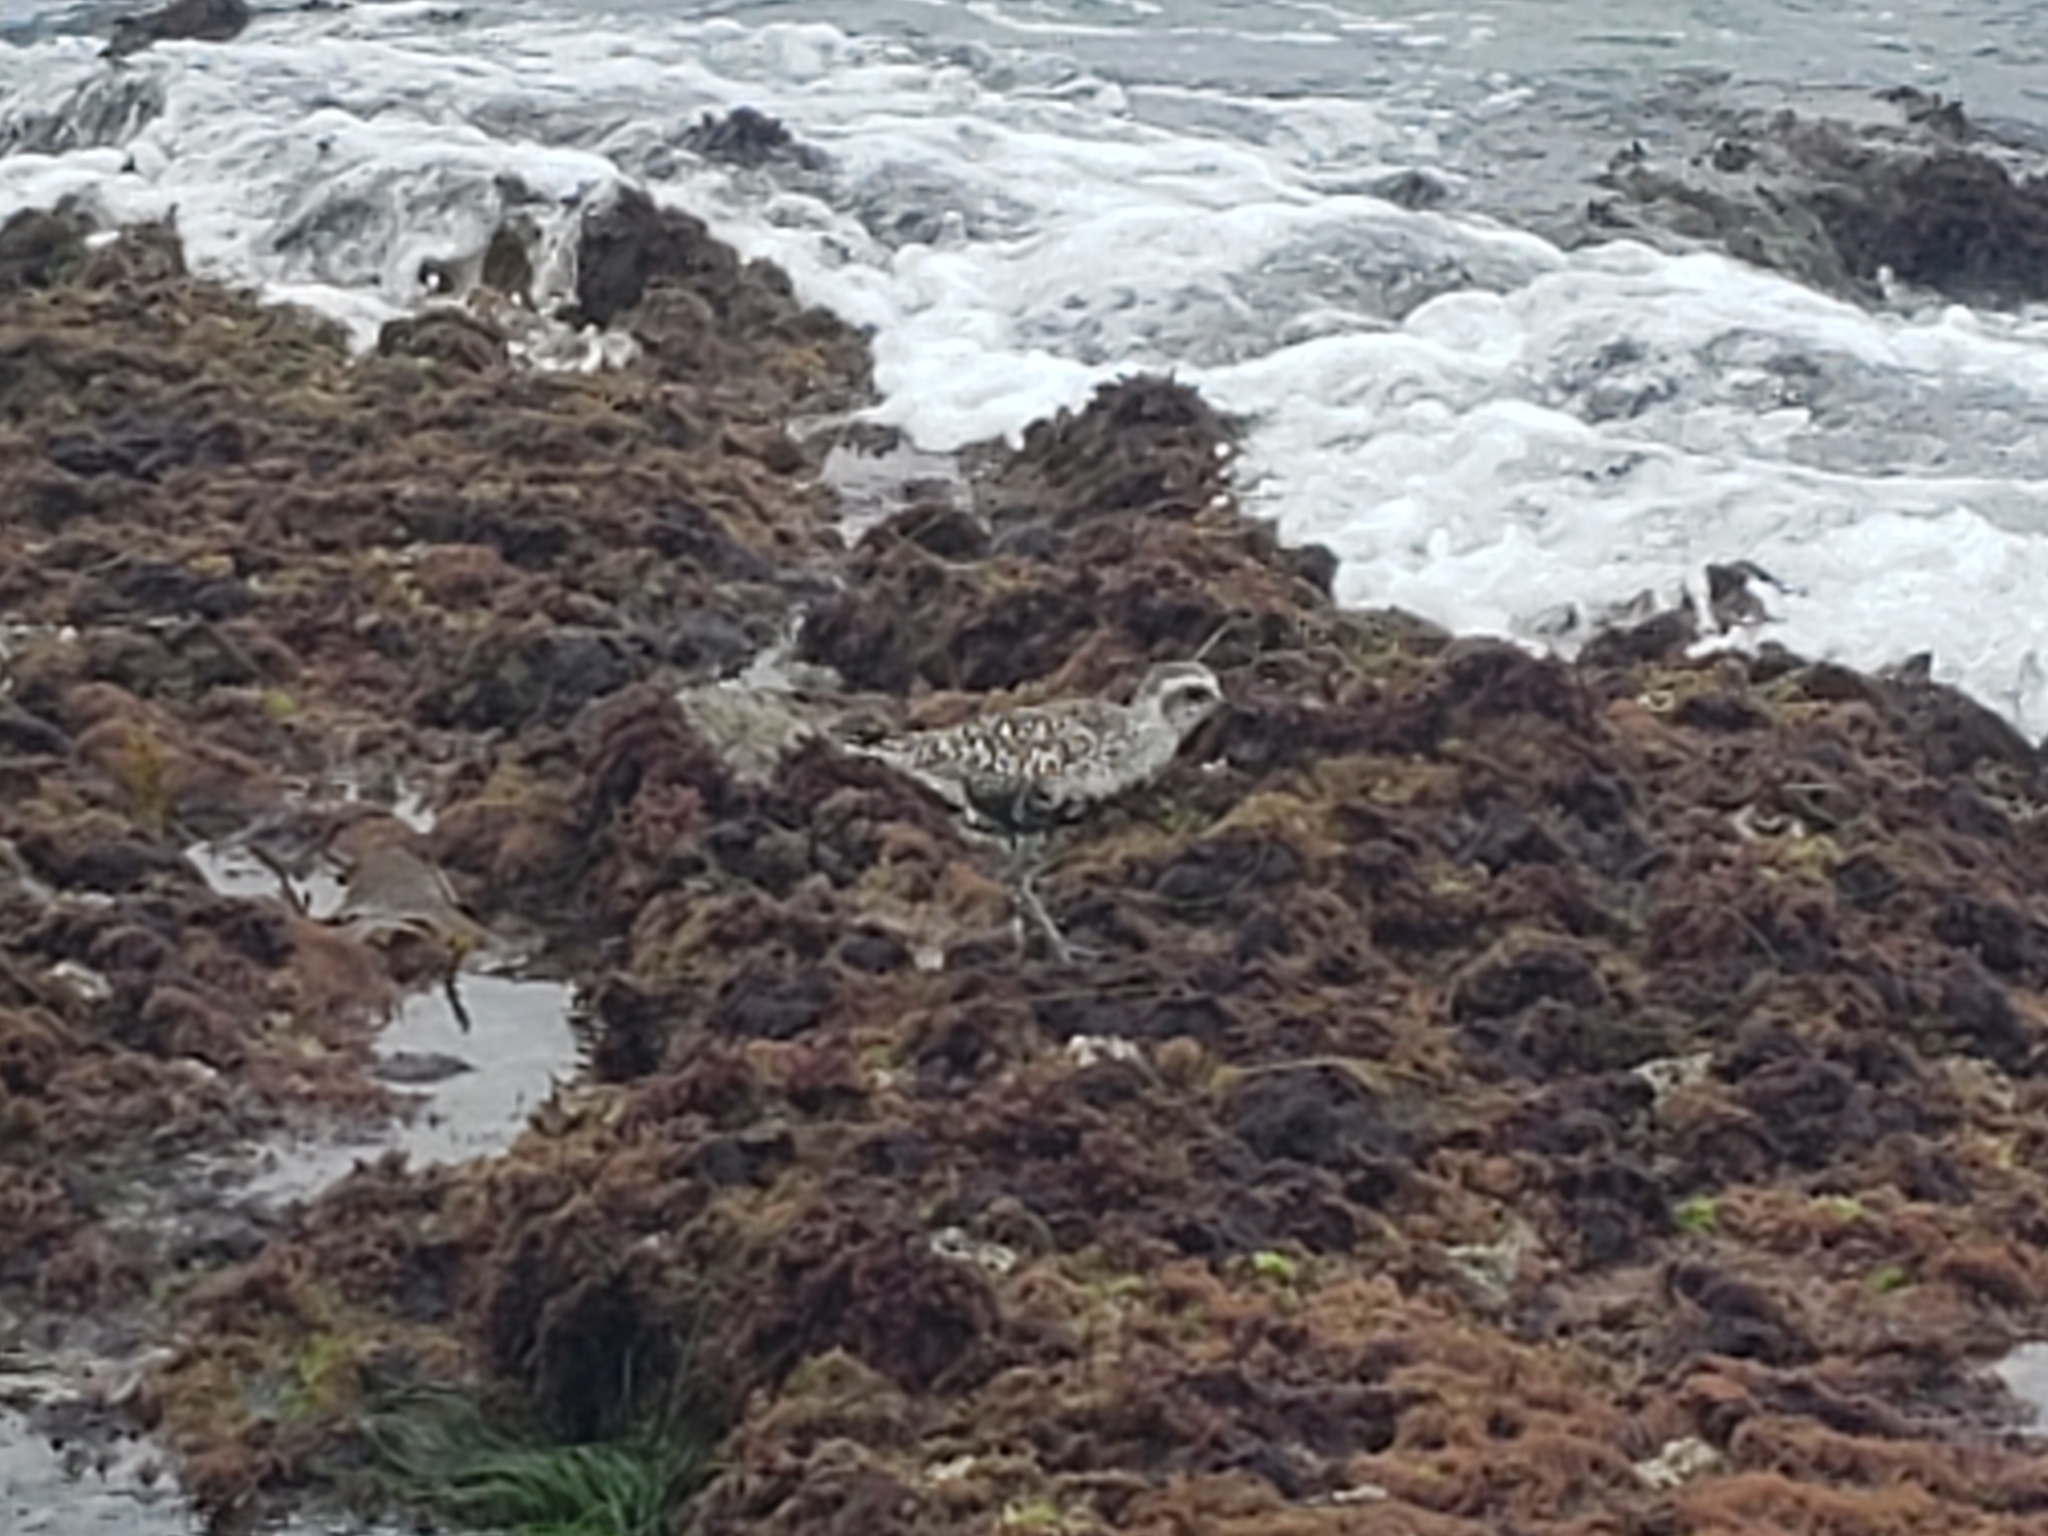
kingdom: Animalia
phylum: Chordata
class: Aves
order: Charadriiformes
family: Charadriidae
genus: Pluvialis
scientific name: Pluvialis squatarola
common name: Grey plover
